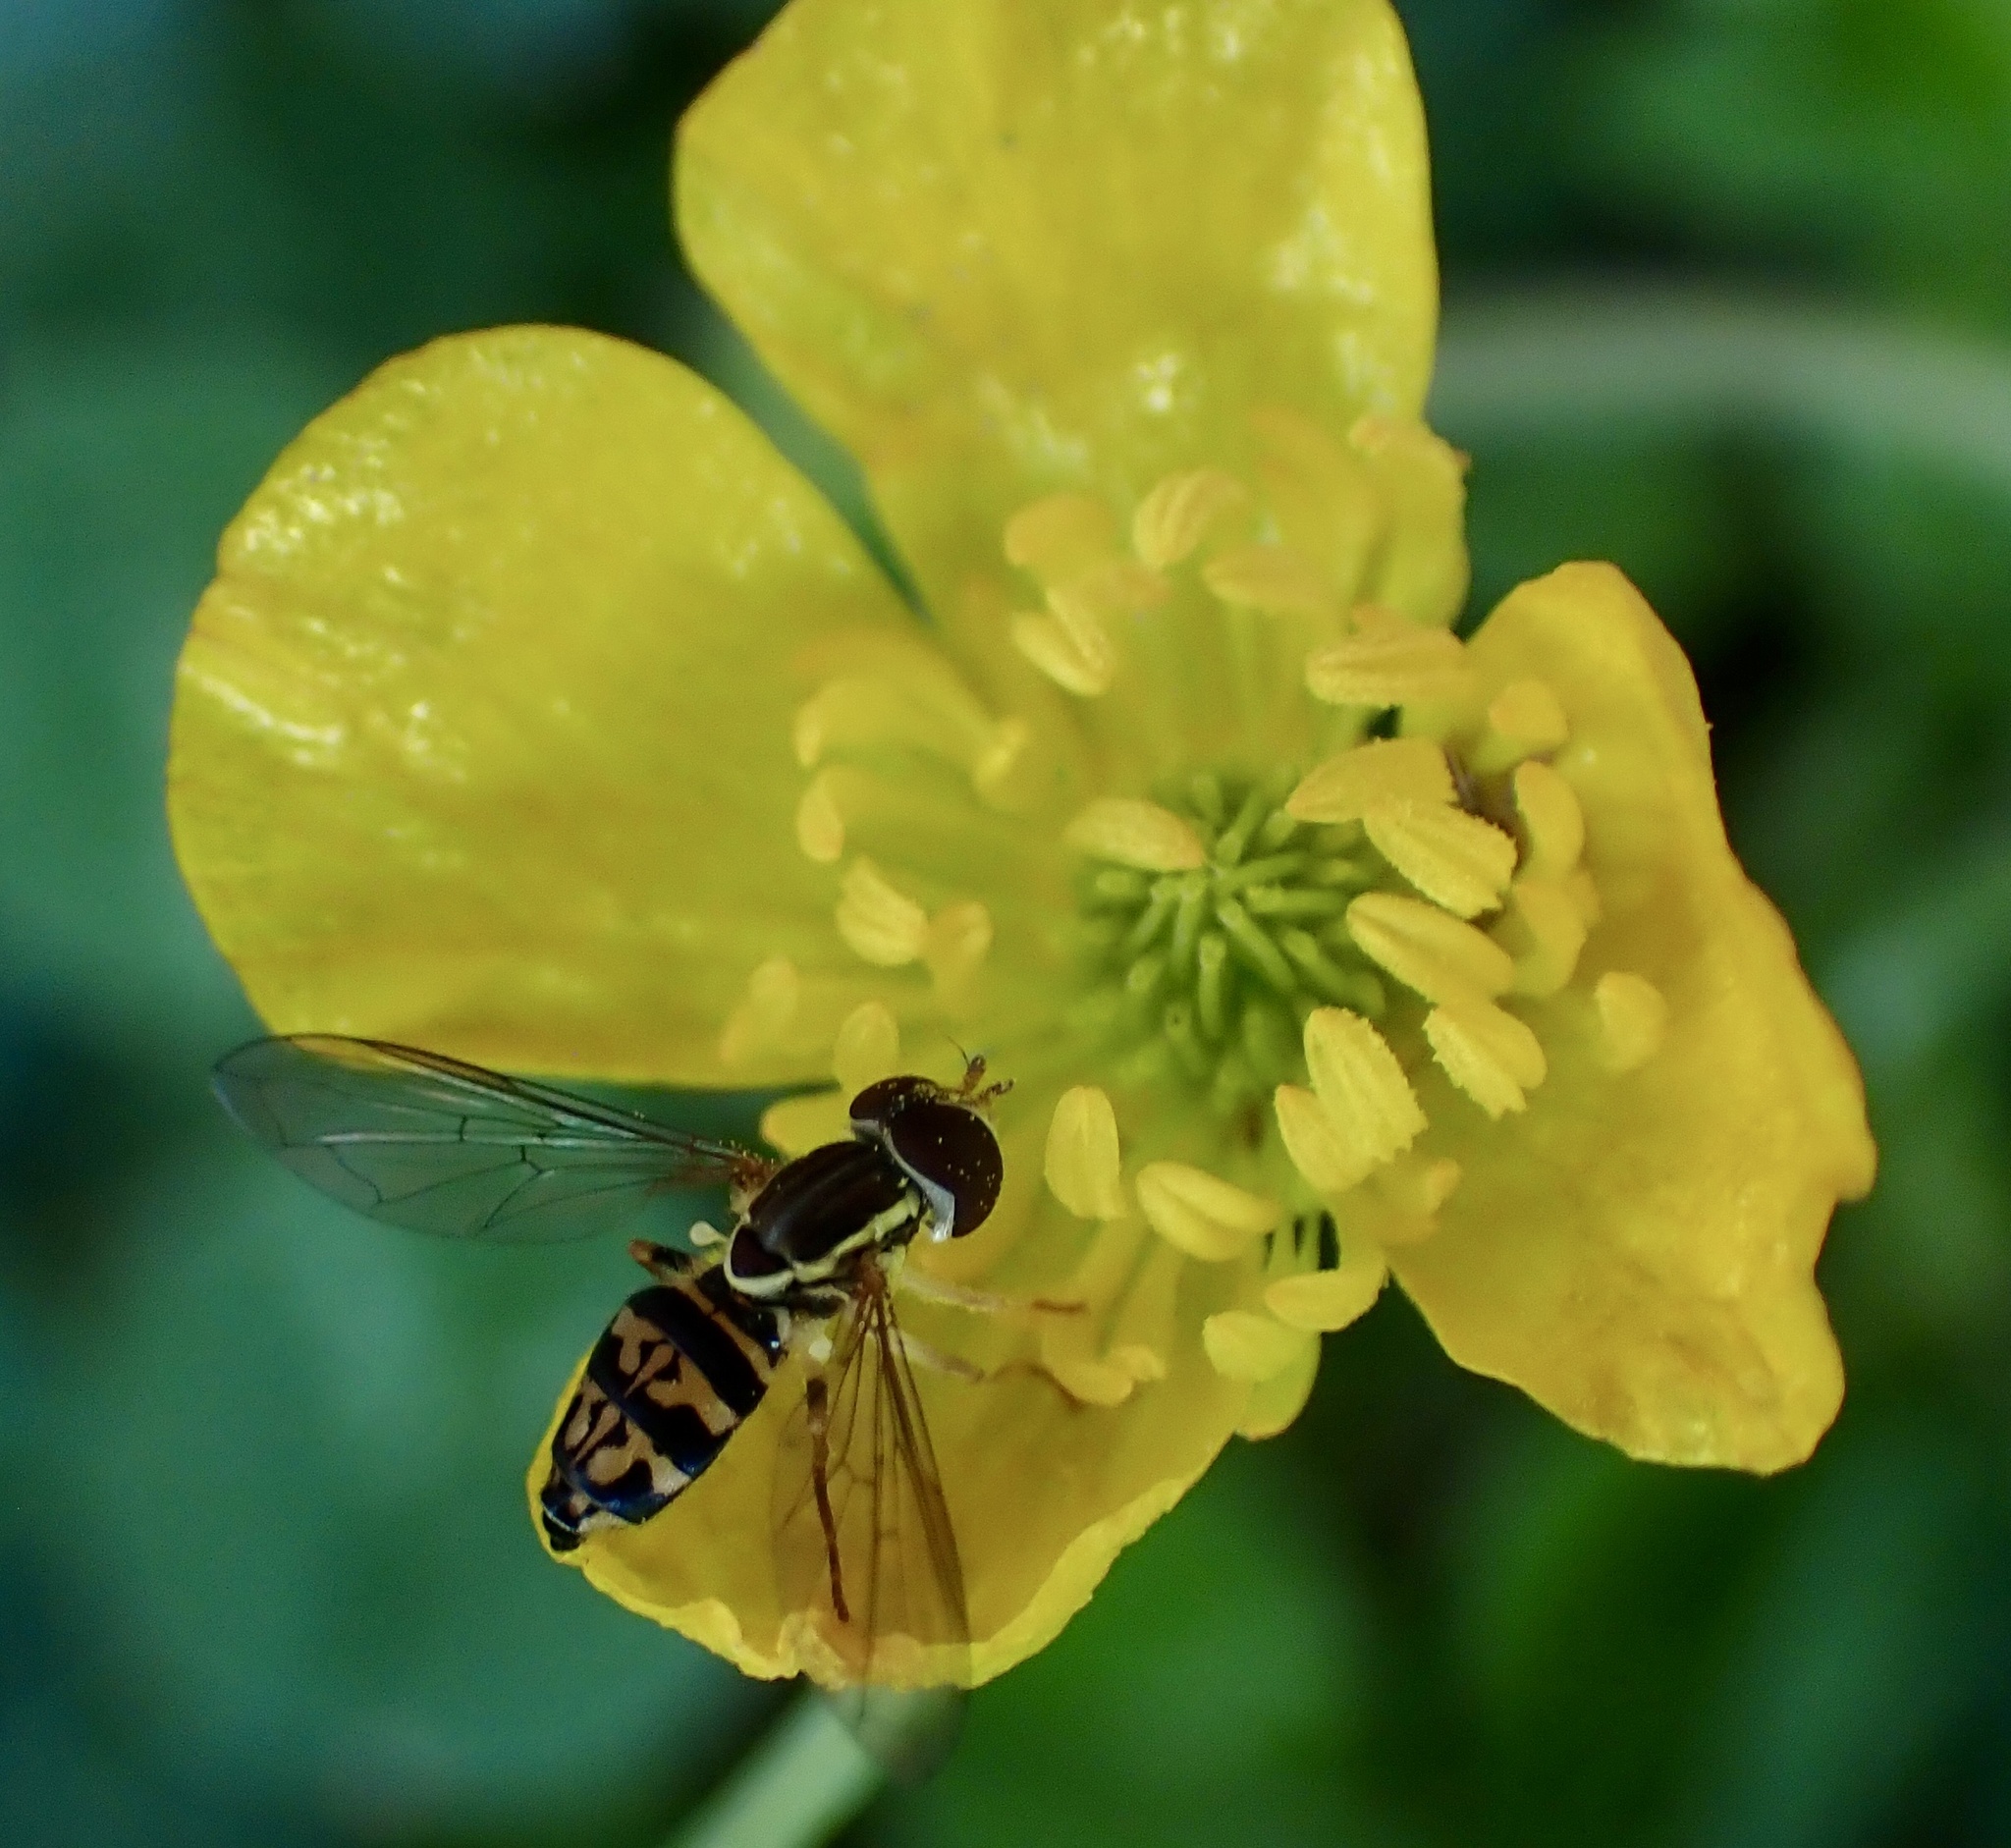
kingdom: Animalia
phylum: Arthropoda
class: Insecta
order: Diptera
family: Syrphidae
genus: Toxomerus
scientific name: Toxomerus geminatus
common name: Eastern calligrapher
